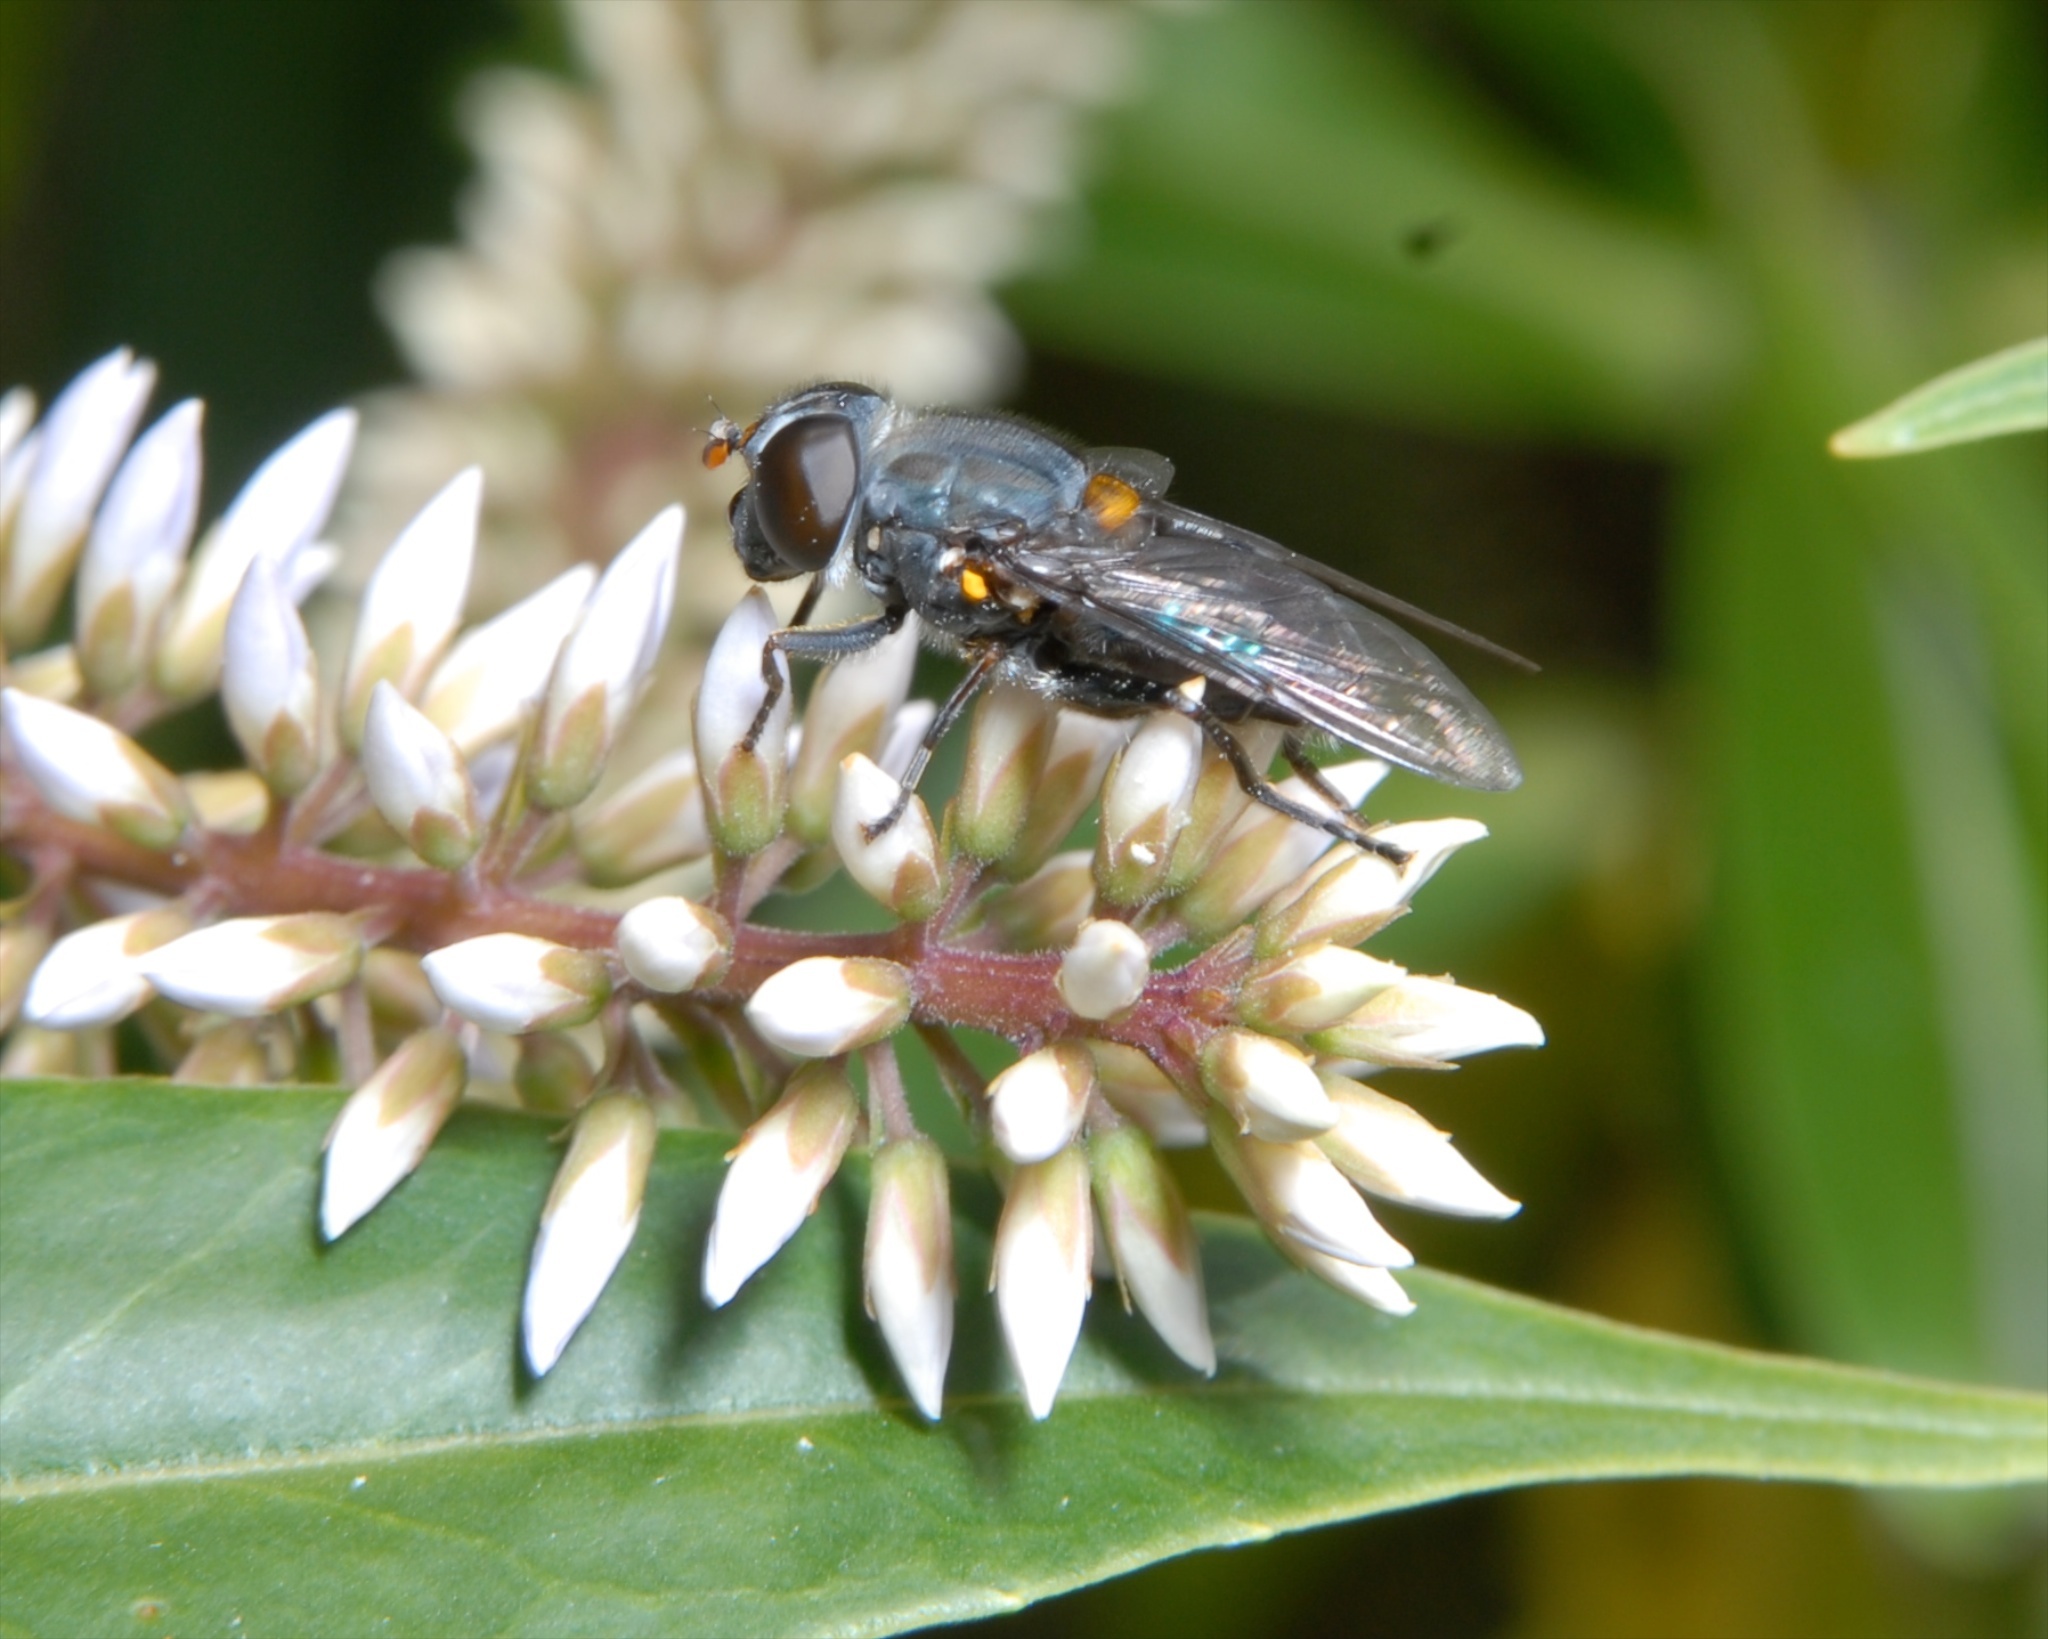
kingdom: Animalia
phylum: Arthropoda
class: Insecta
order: Diptera
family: Syrphidae
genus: Helophilus
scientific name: Helophilus hochstetteri
